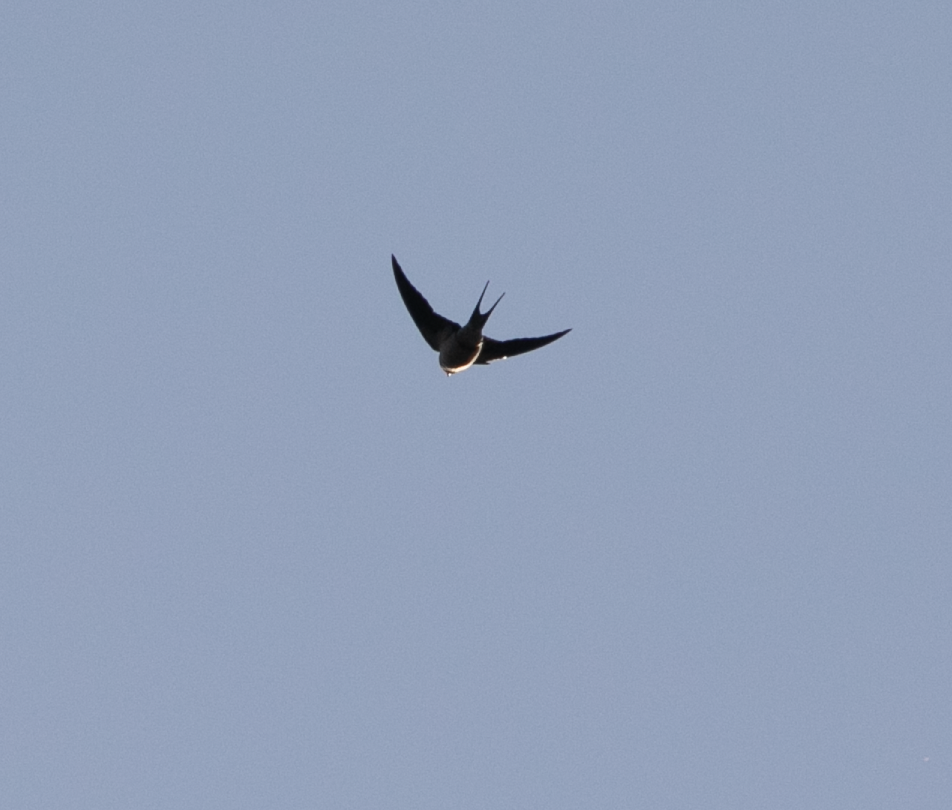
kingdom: Animalia
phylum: Chordata
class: Aves
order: Passeriformes
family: Hirundinidae
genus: Hirundo
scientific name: Hirundo rustica
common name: Barn swallow
